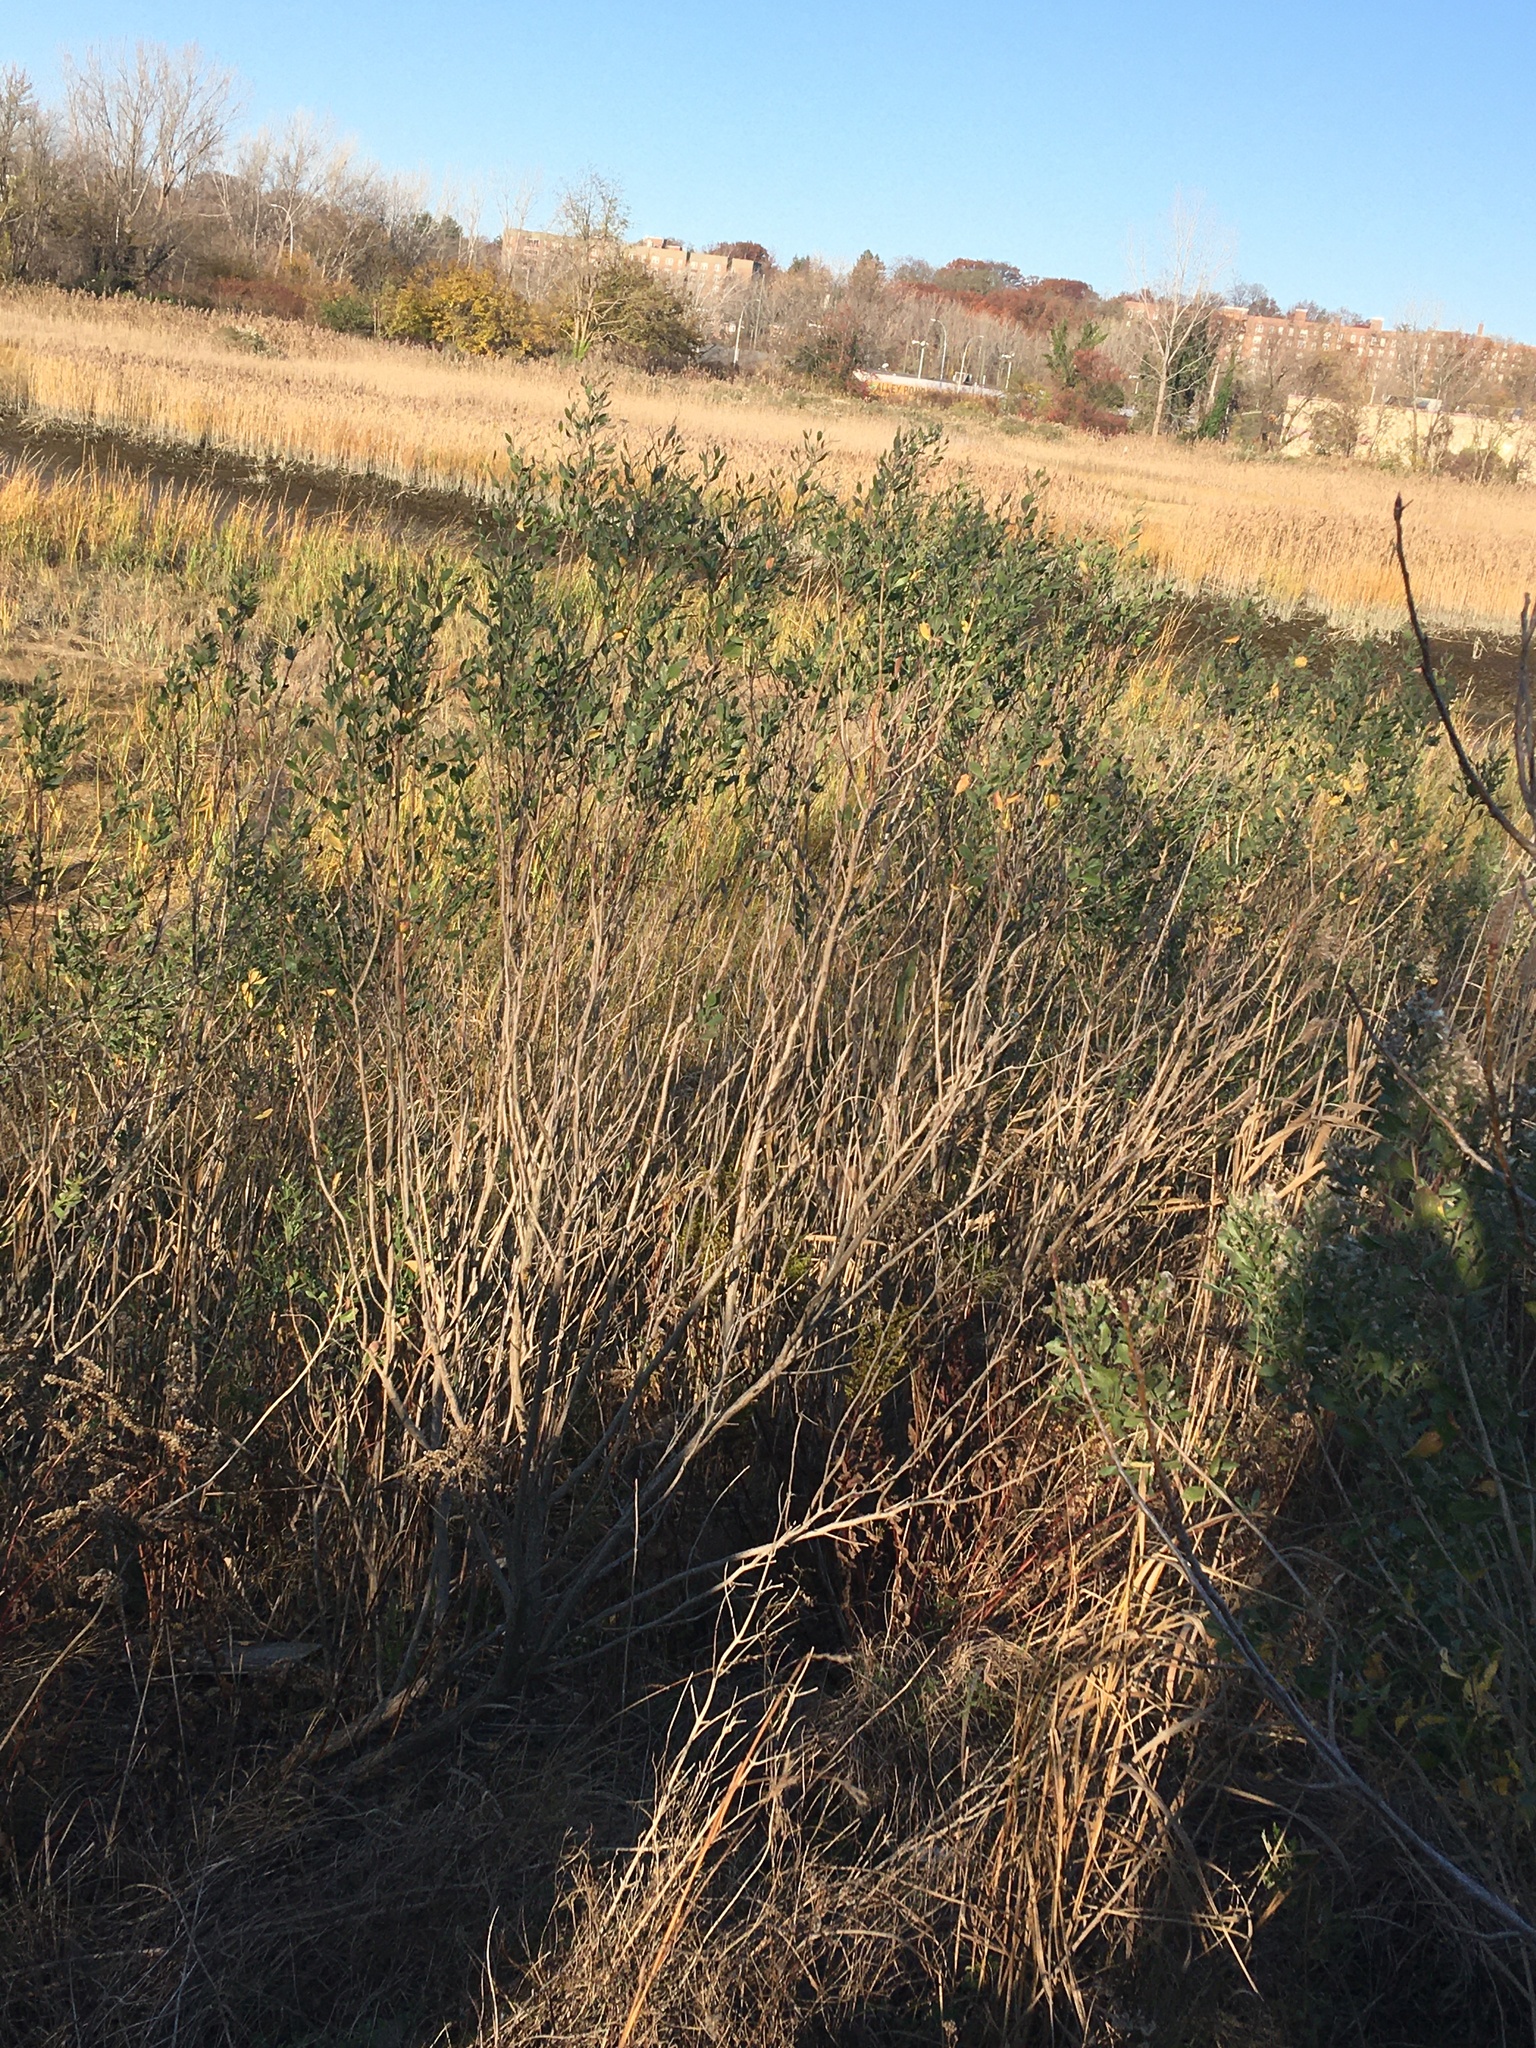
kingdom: Plantae
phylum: Tracheophyta
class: Magnoliopsida
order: Asterales
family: Asteraceae
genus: Baccharis
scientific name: Baccharis halimifolia
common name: Eastern baccharis
